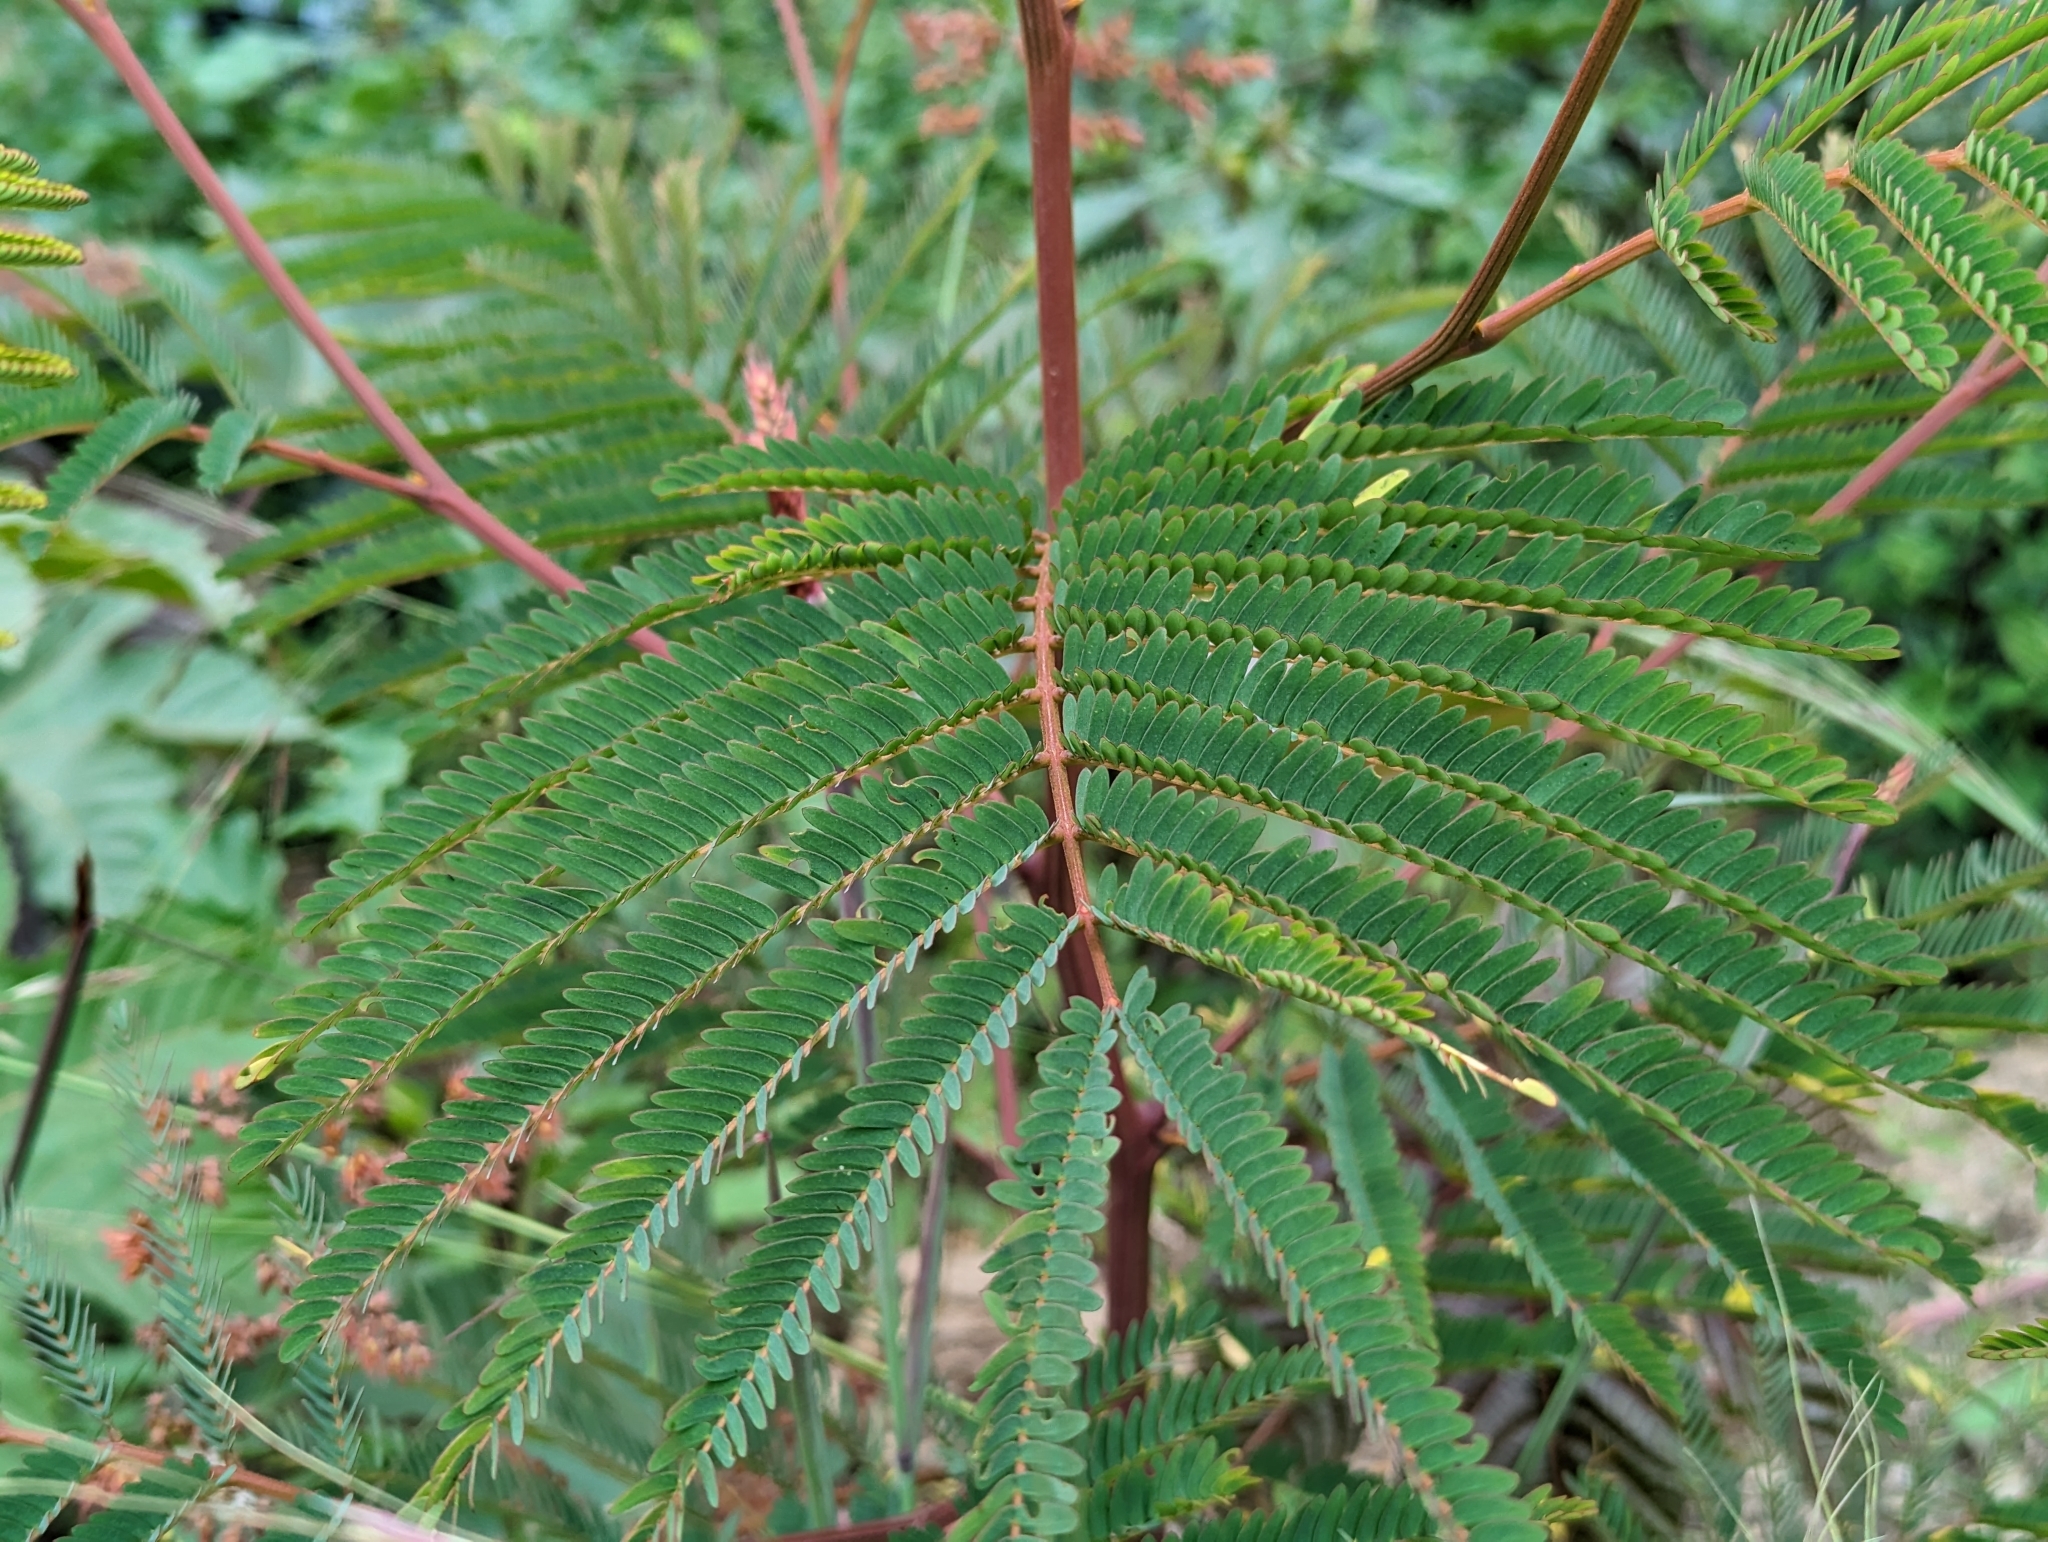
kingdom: Plantae
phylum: Tracheophyta
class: Magnoliopsida
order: Fabales
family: Fabaceae
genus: Paraserianthes
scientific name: Paraserianthes lophantha
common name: Plume albizia
